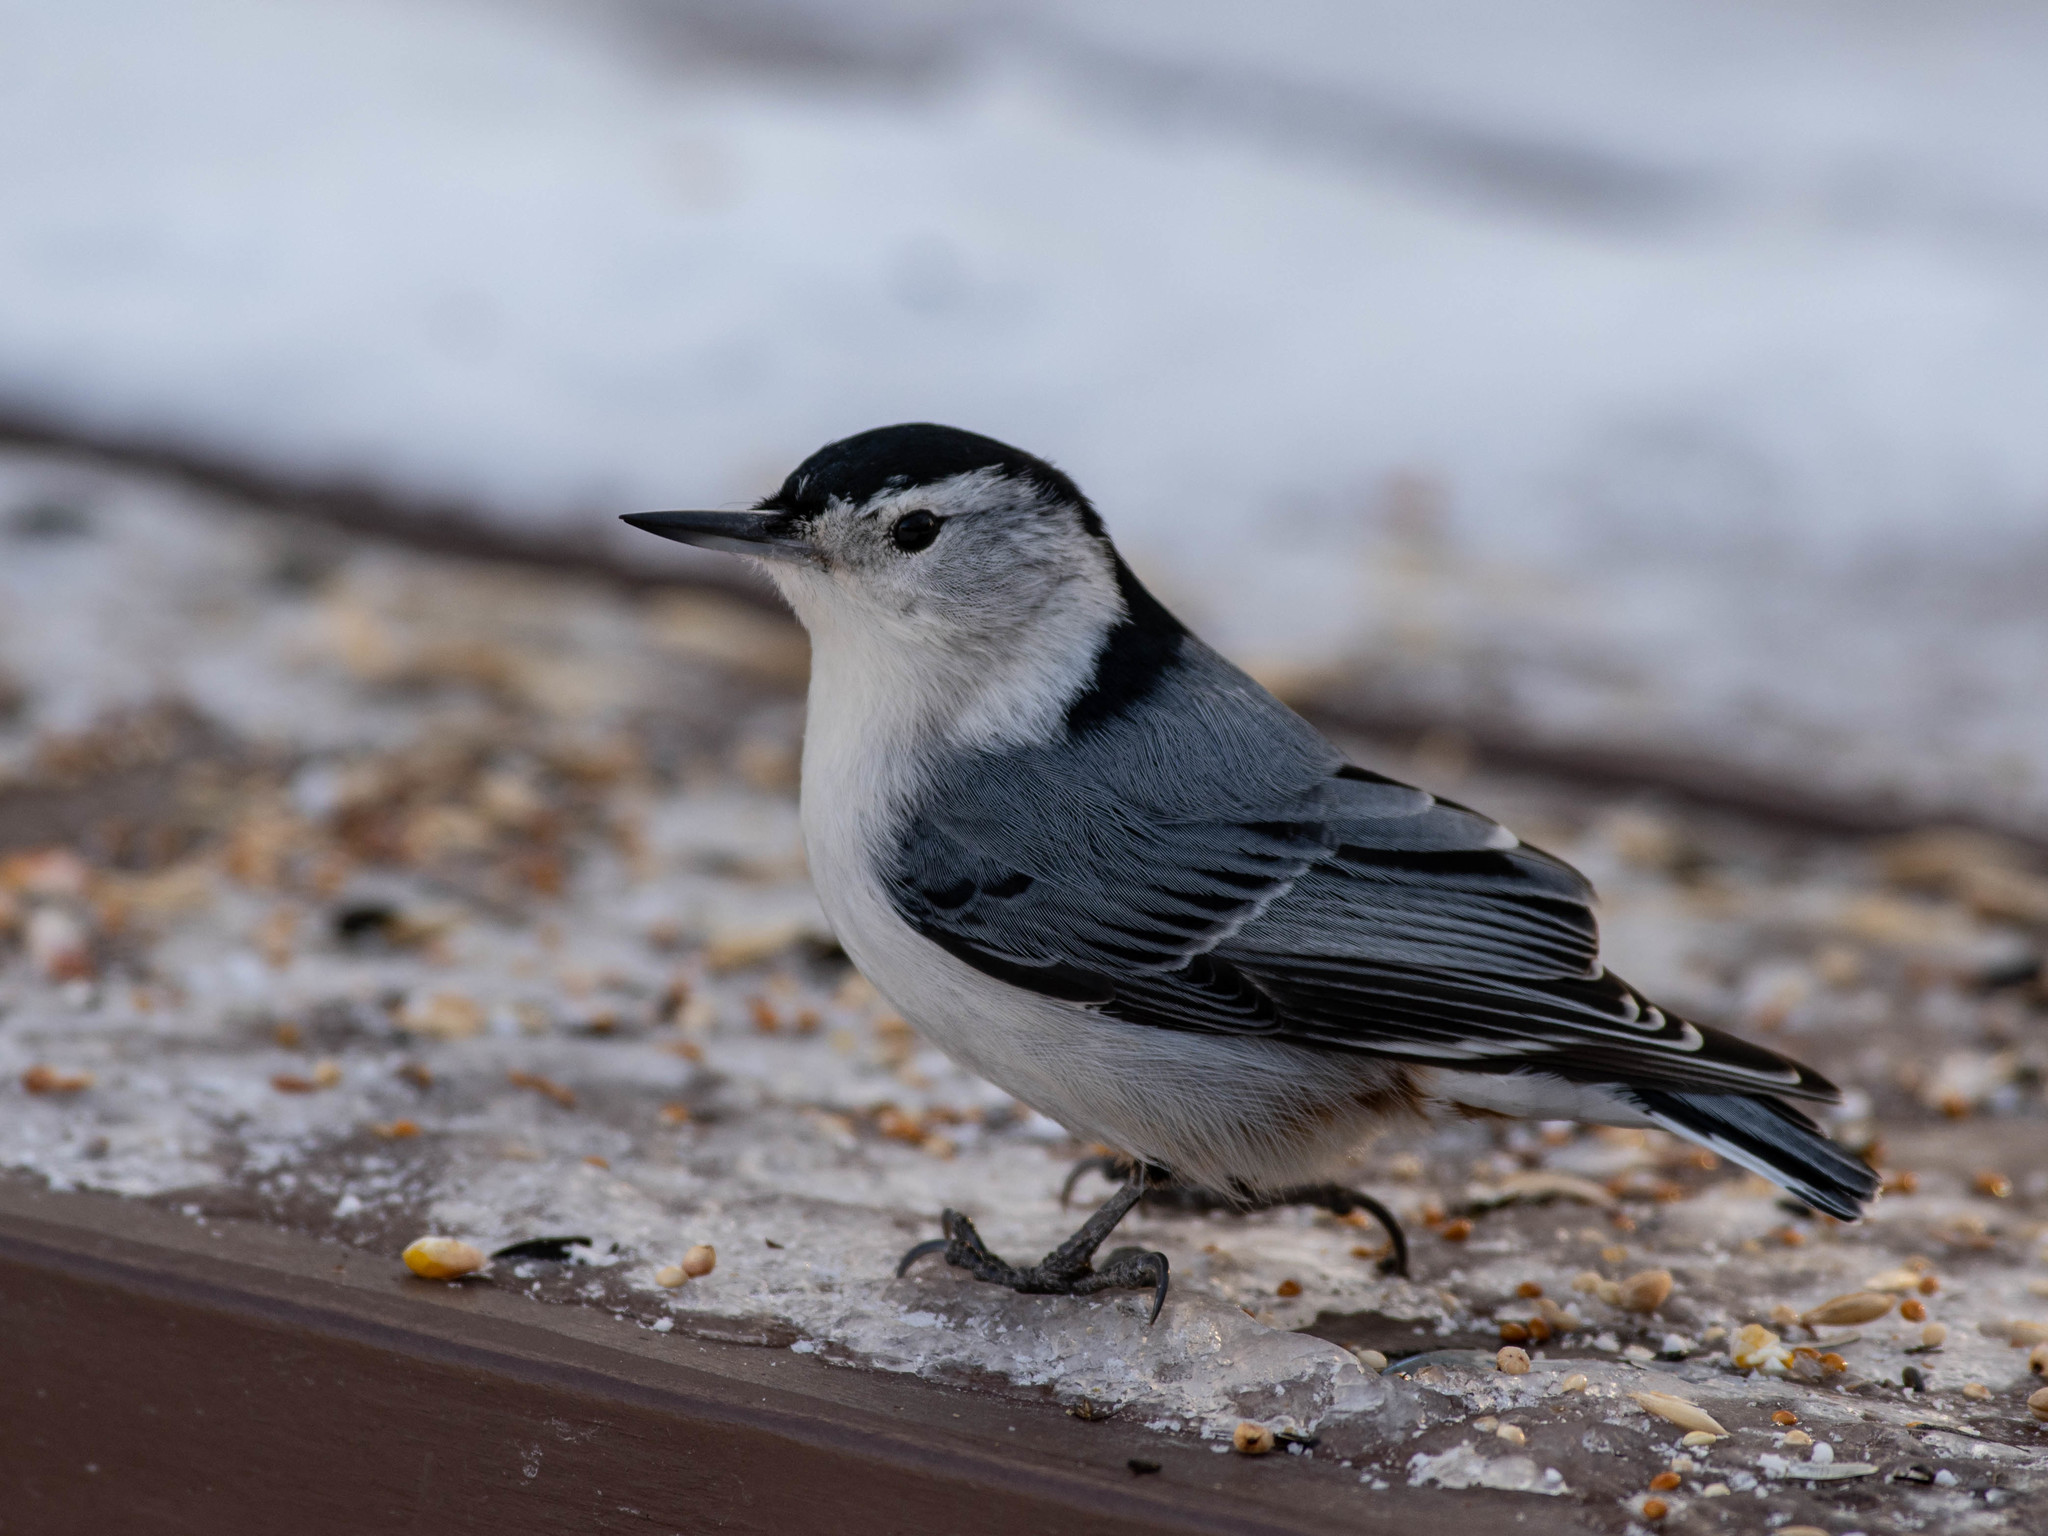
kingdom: Animalia
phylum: Chordata
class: Aves
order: Passeriformes
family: Sittidae
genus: Sitta
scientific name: Sitta carolinensis
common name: White-breasted nuthatch
